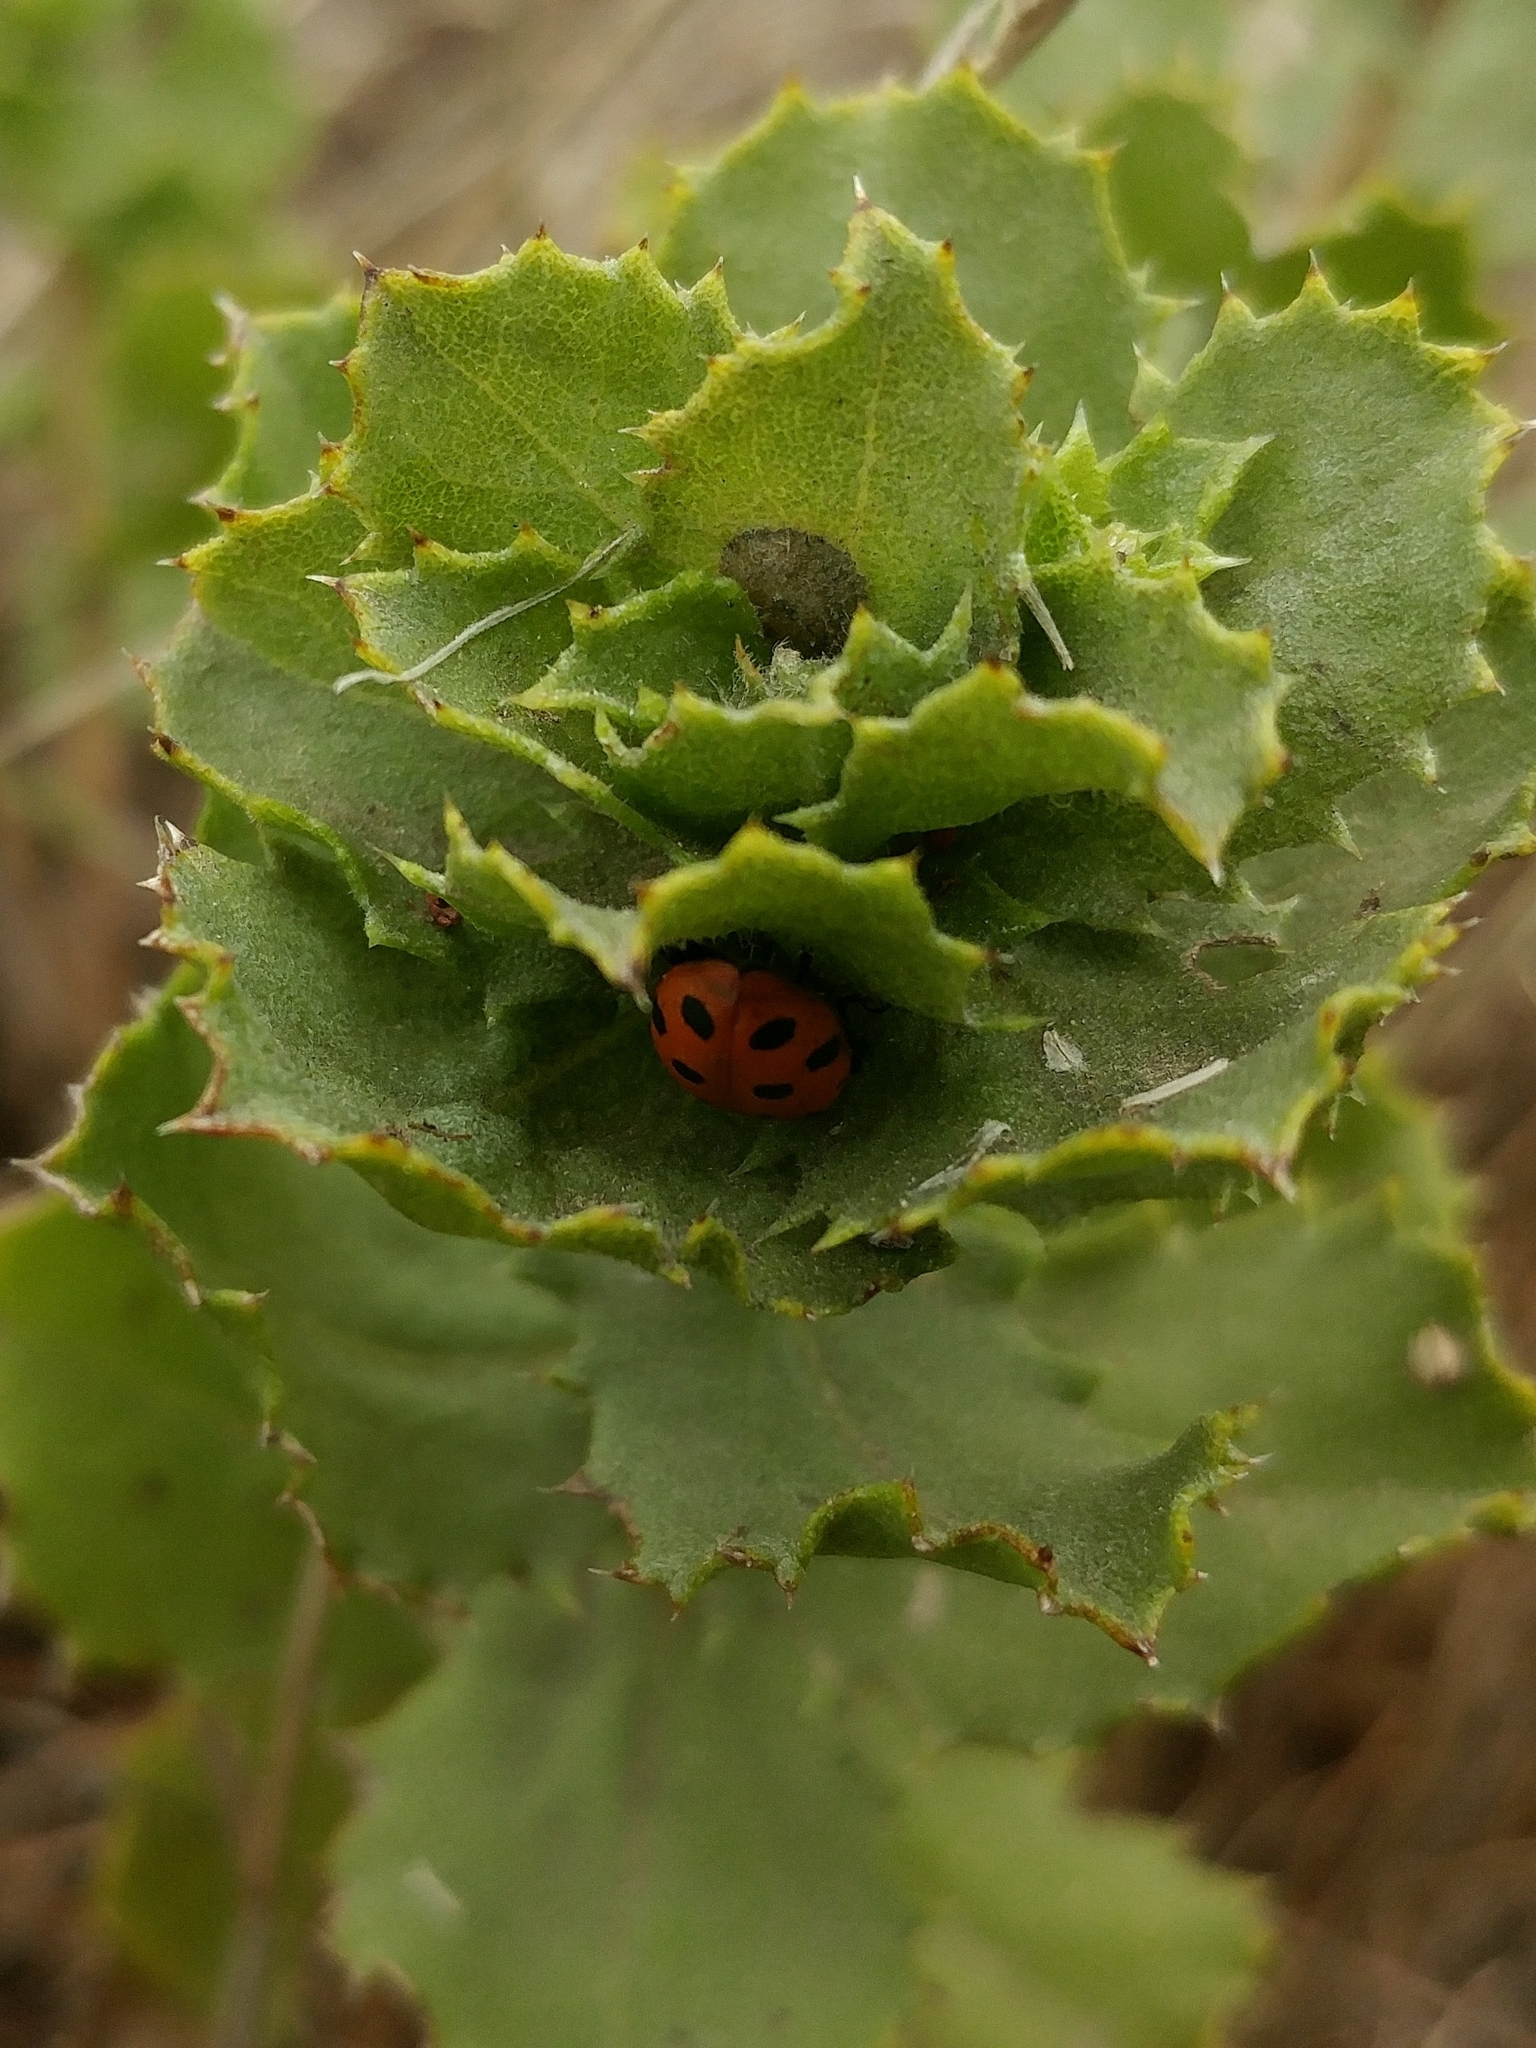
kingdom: Animalia
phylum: Arthropoda
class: Insecta
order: Coleoptera
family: Coccinellidae
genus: Hippodamia
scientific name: Hippodamia convergens
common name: Convergent lady beetle
